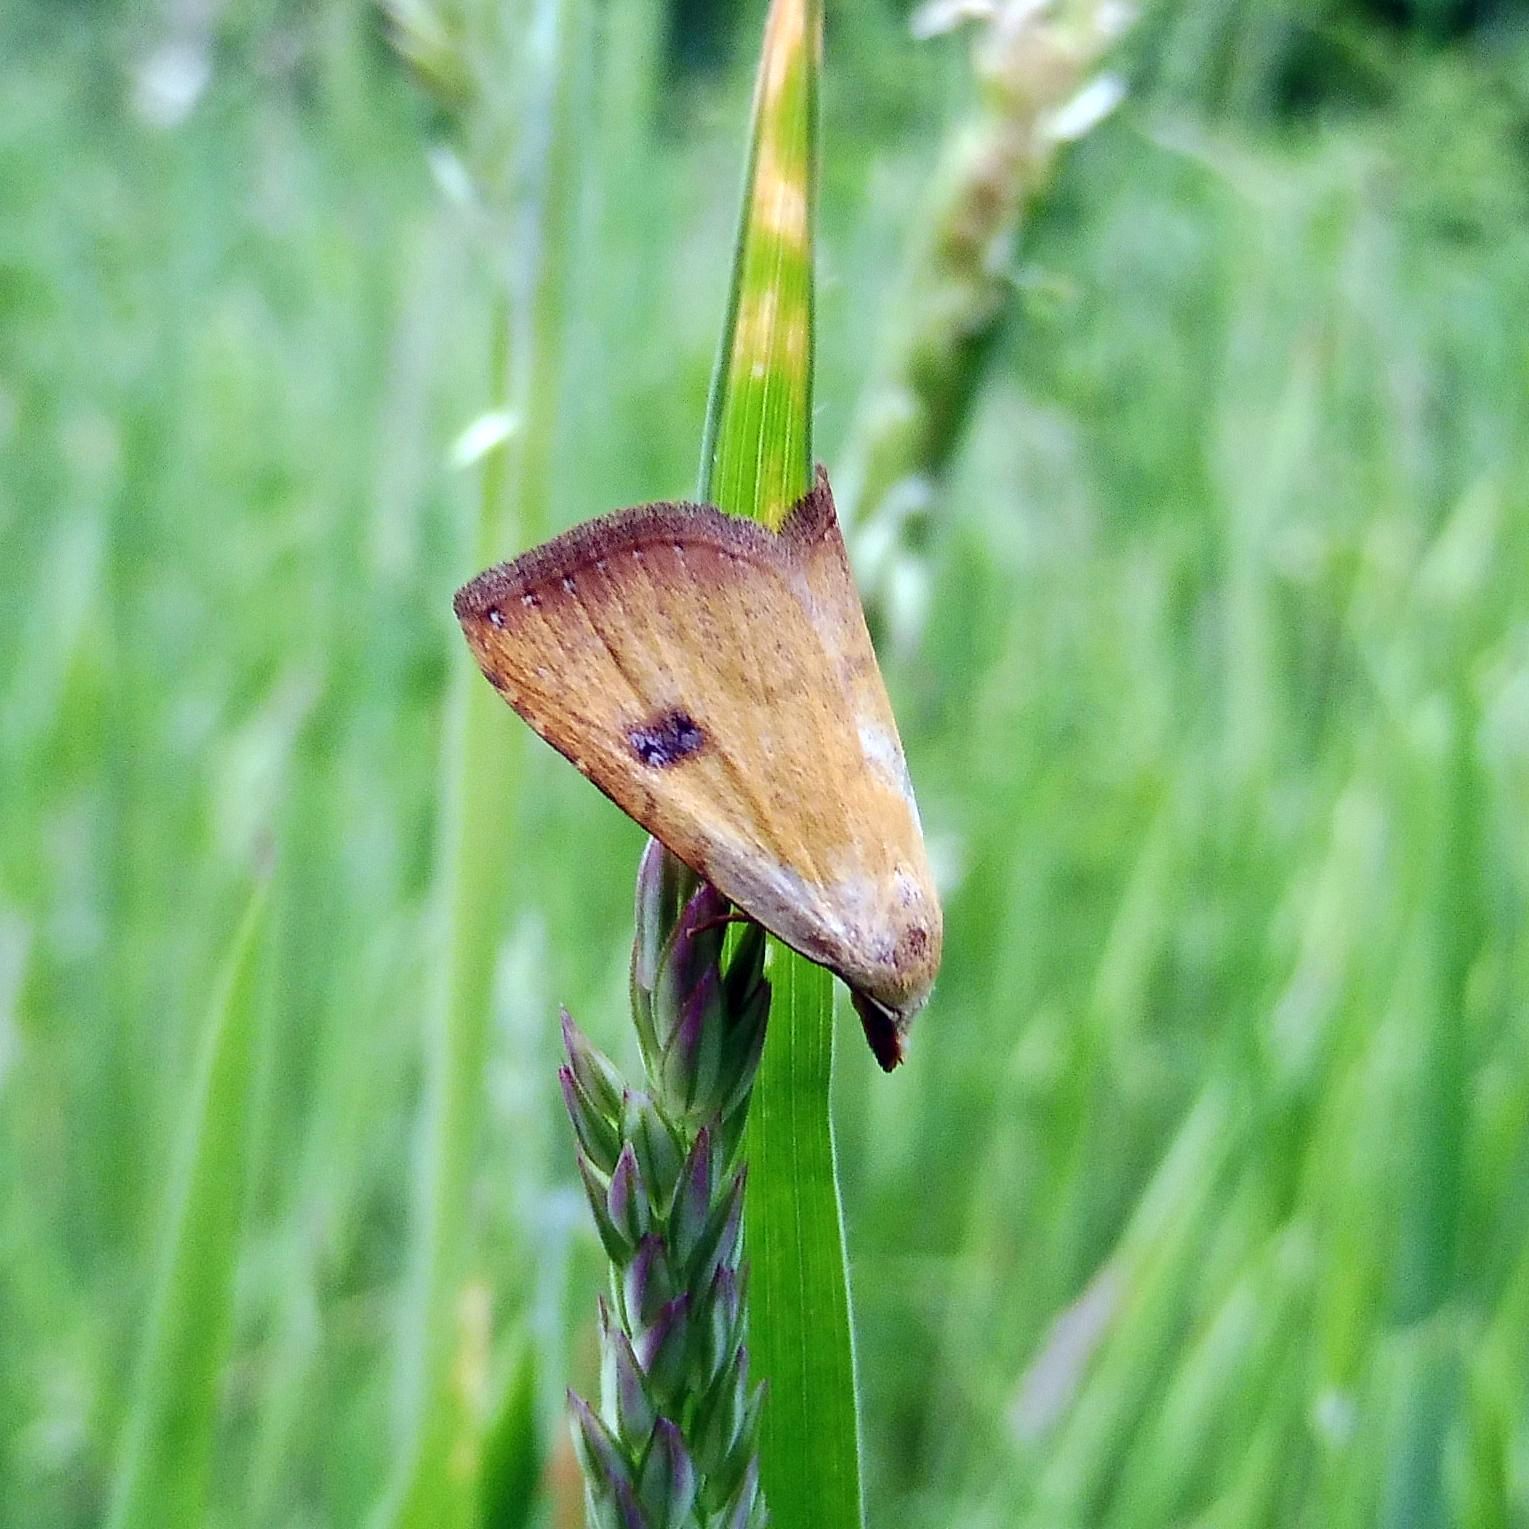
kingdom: Animalia
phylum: Arthropoda
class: Insecta
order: Lepidoptera
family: Erebidae
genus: Rivula
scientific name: Rivula sericealis
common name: Straw dot
